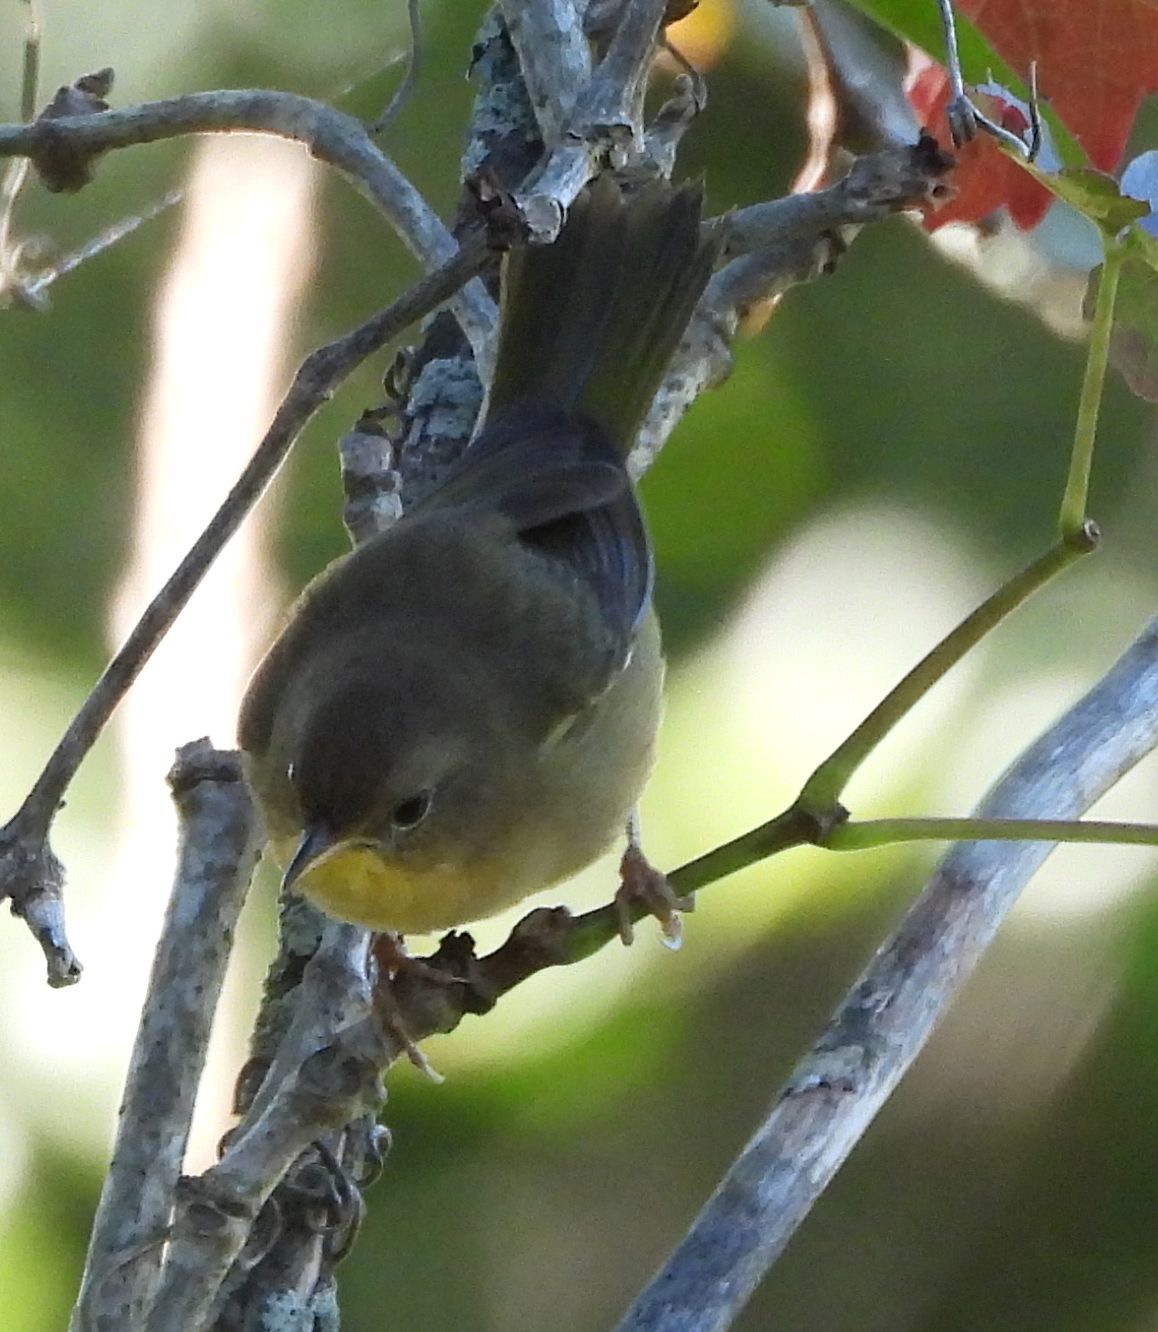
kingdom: Animalia
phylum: Chordata
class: Aves
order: Passeriformes
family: Parulidae
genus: Geothlypis
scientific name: Geothlypis trichas
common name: Common yellowthroat
